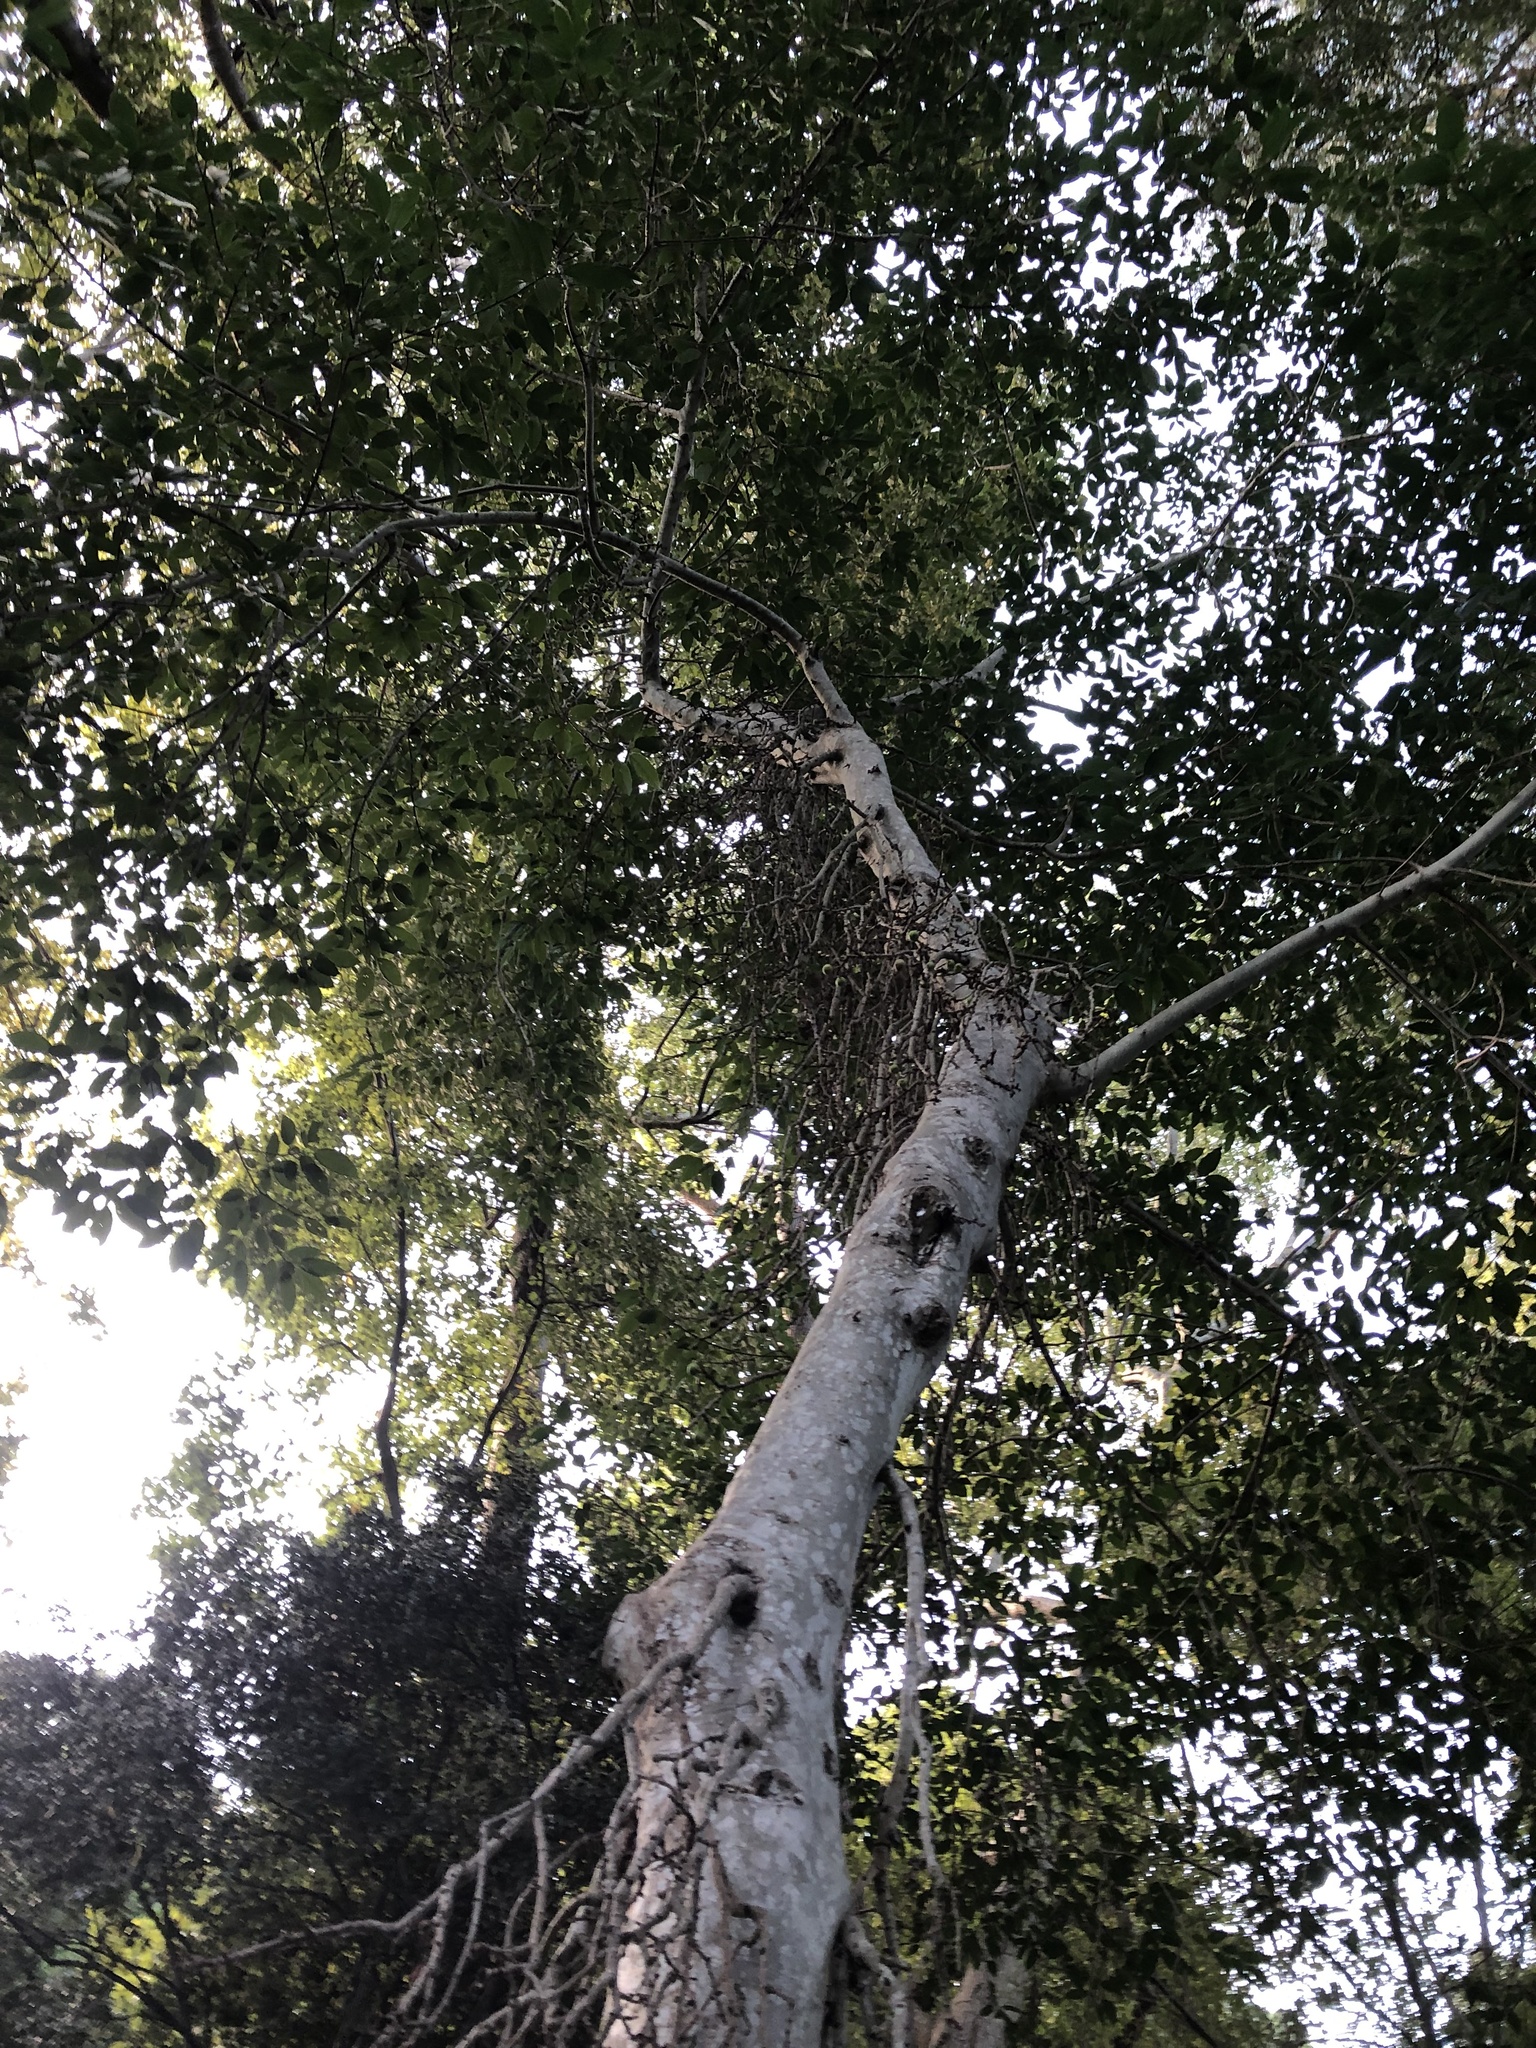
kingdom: Plantae
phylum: Tracheophyta
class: Magnoliopsida
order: Rosales
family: Moraceae
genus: Ficus
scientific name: Ficus sur
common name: Cape fig
